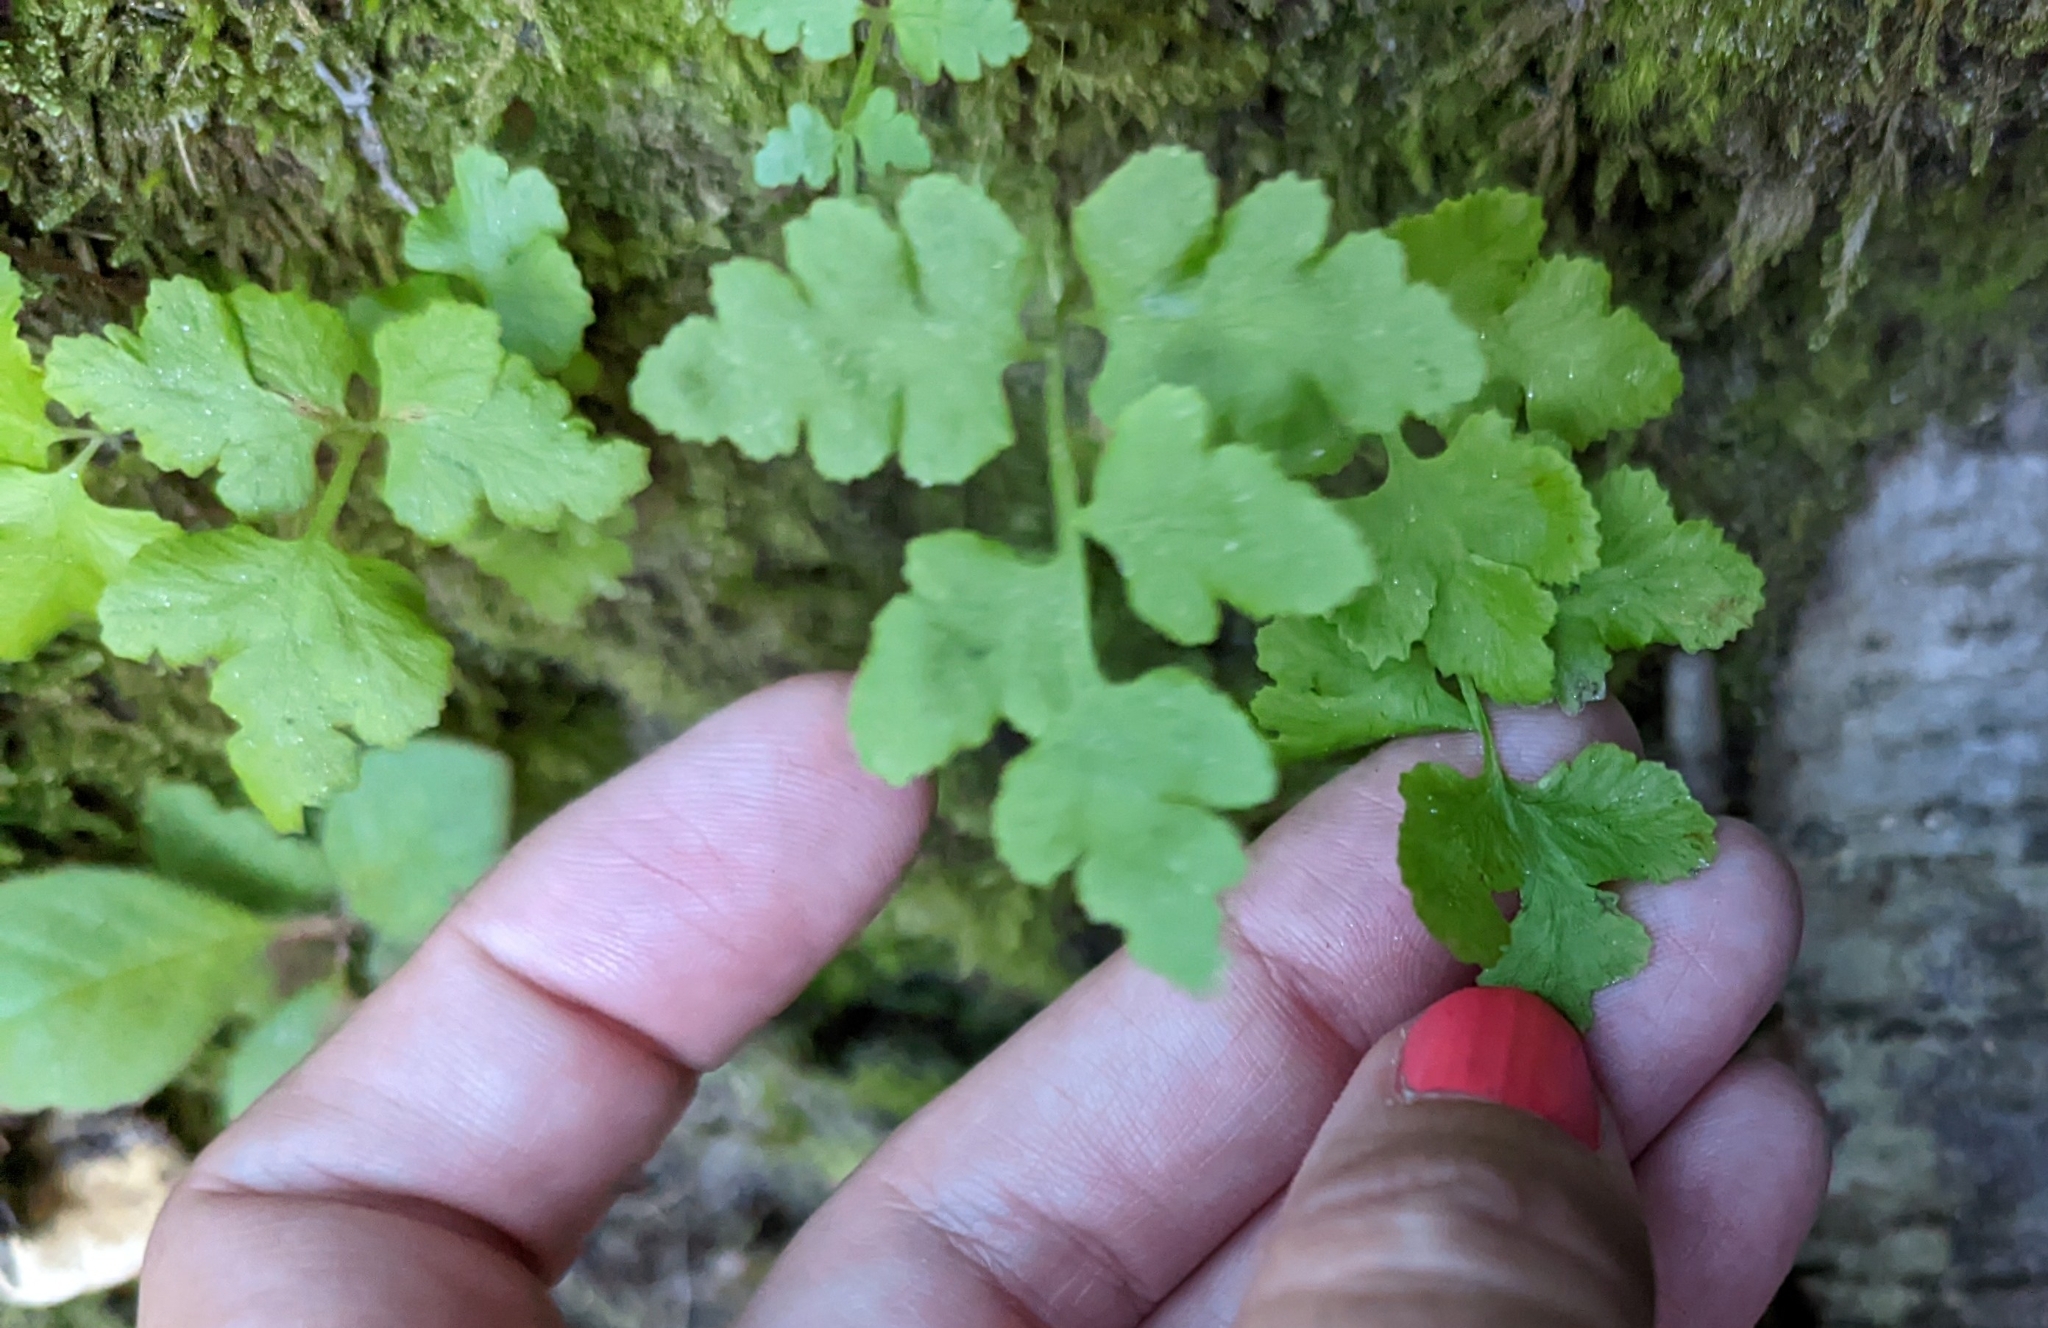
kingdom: Plantae
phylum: Tracheophyta
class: Polypodiopsida
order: Polypodiales
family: Woodsiaceae
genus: Physematium
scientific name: Physematium obtusum
